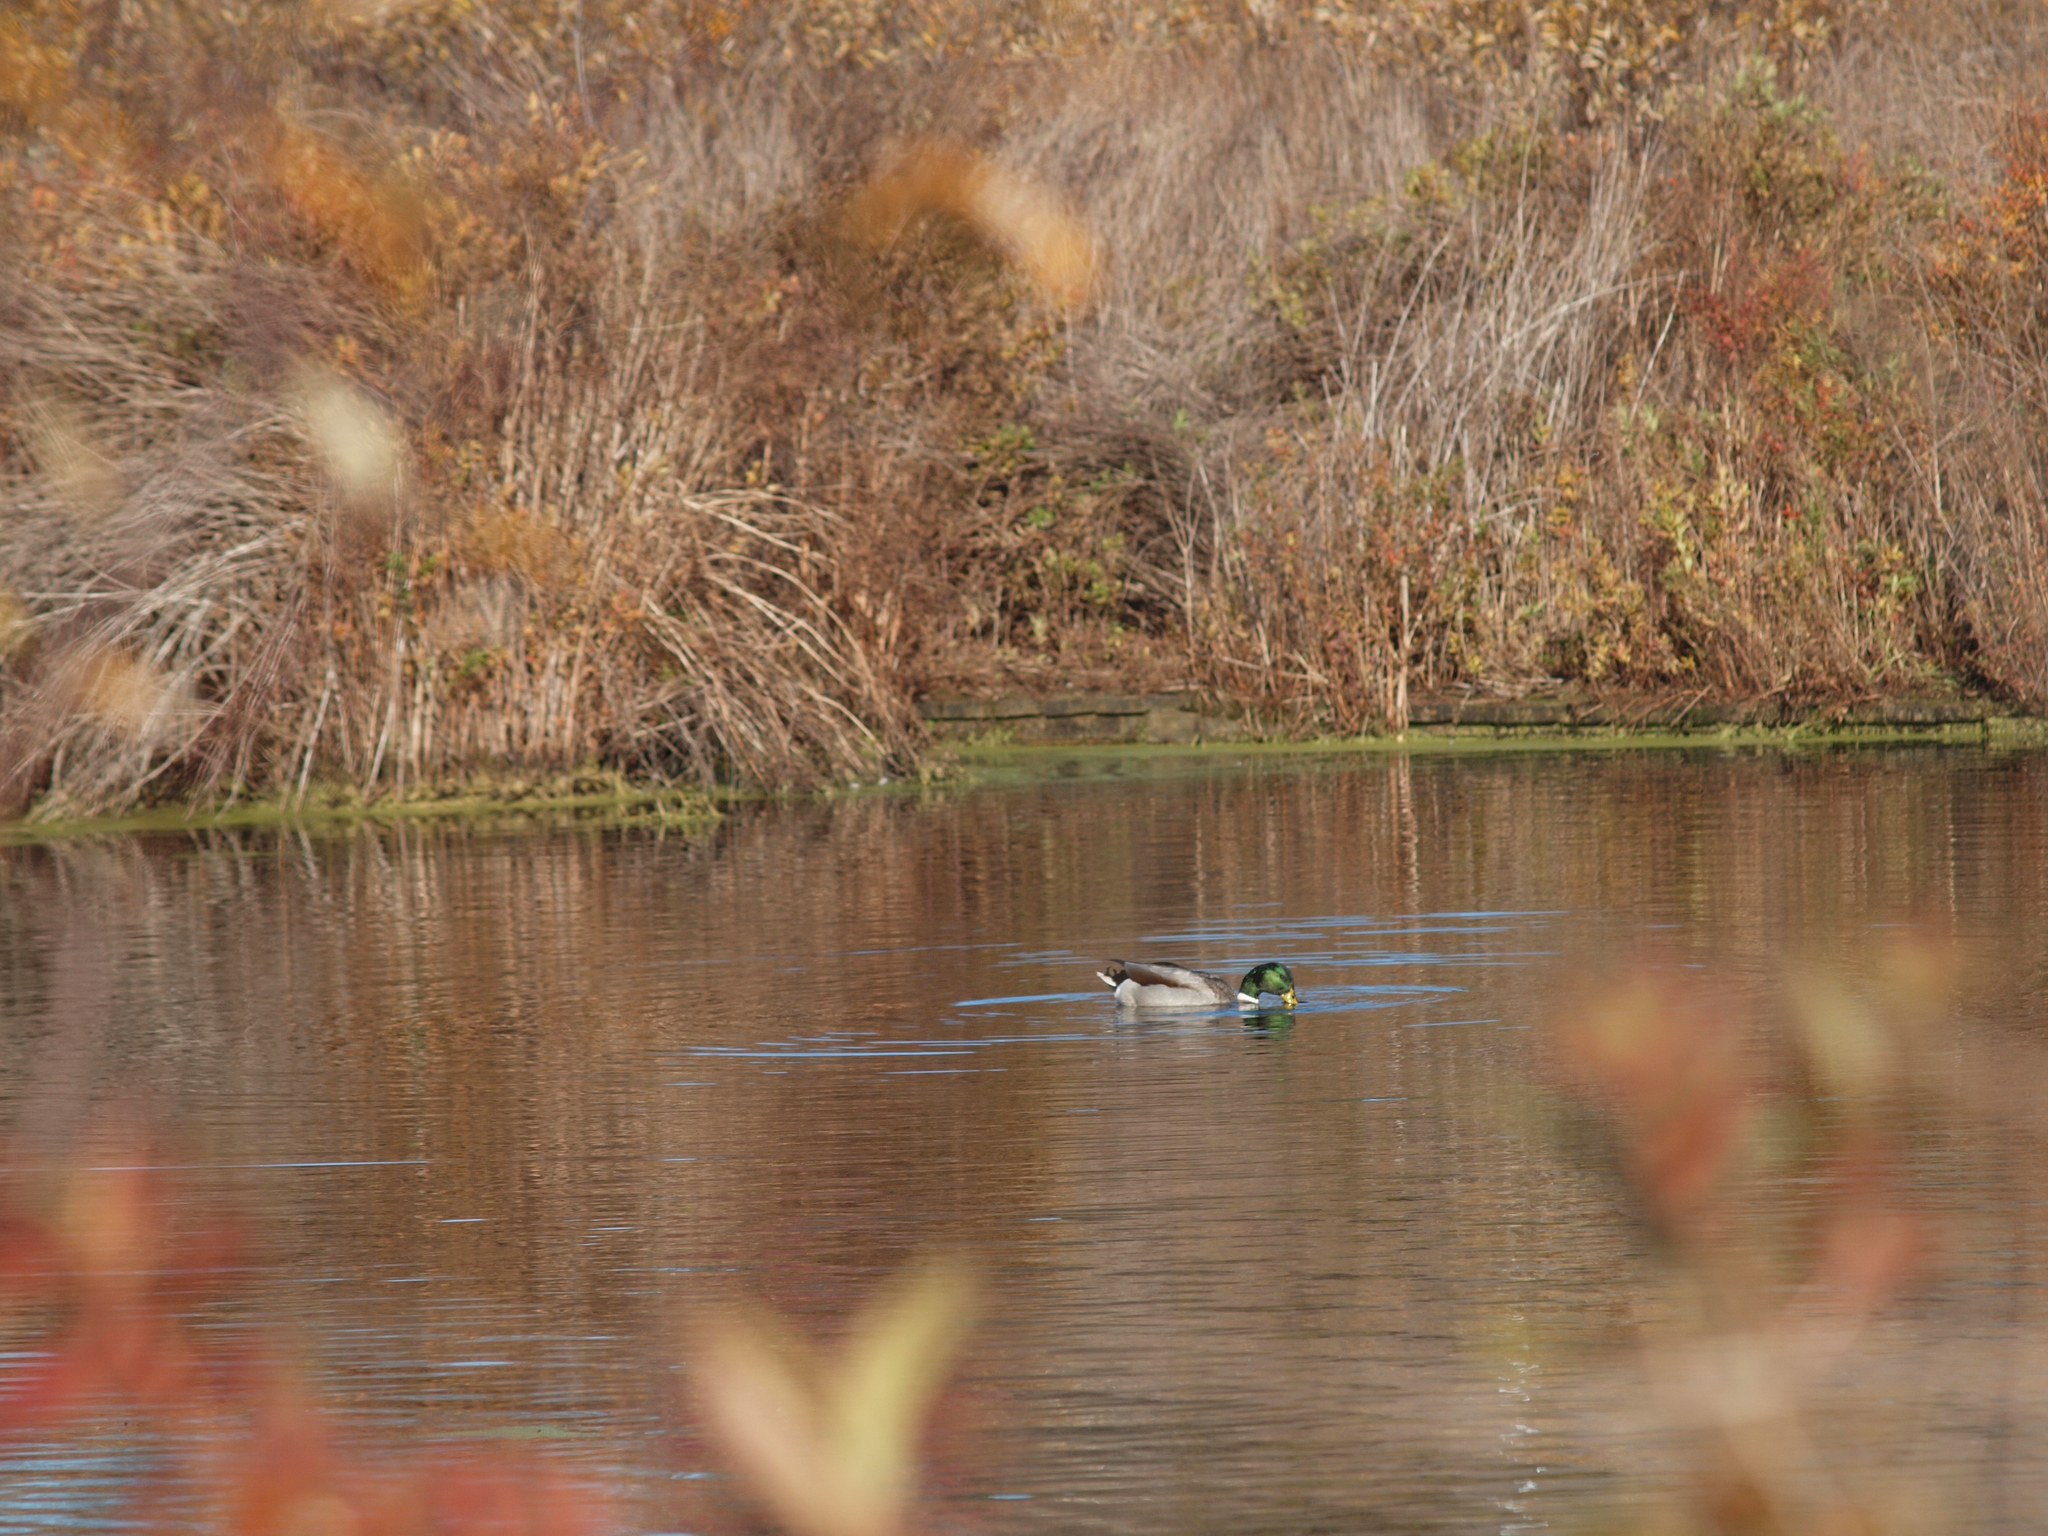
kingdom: Animalia
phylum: Chordata
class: Aves
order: Anseriformes
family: Anatidae
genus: Anas
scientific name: Anas platyrhynchos
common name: Mallard
